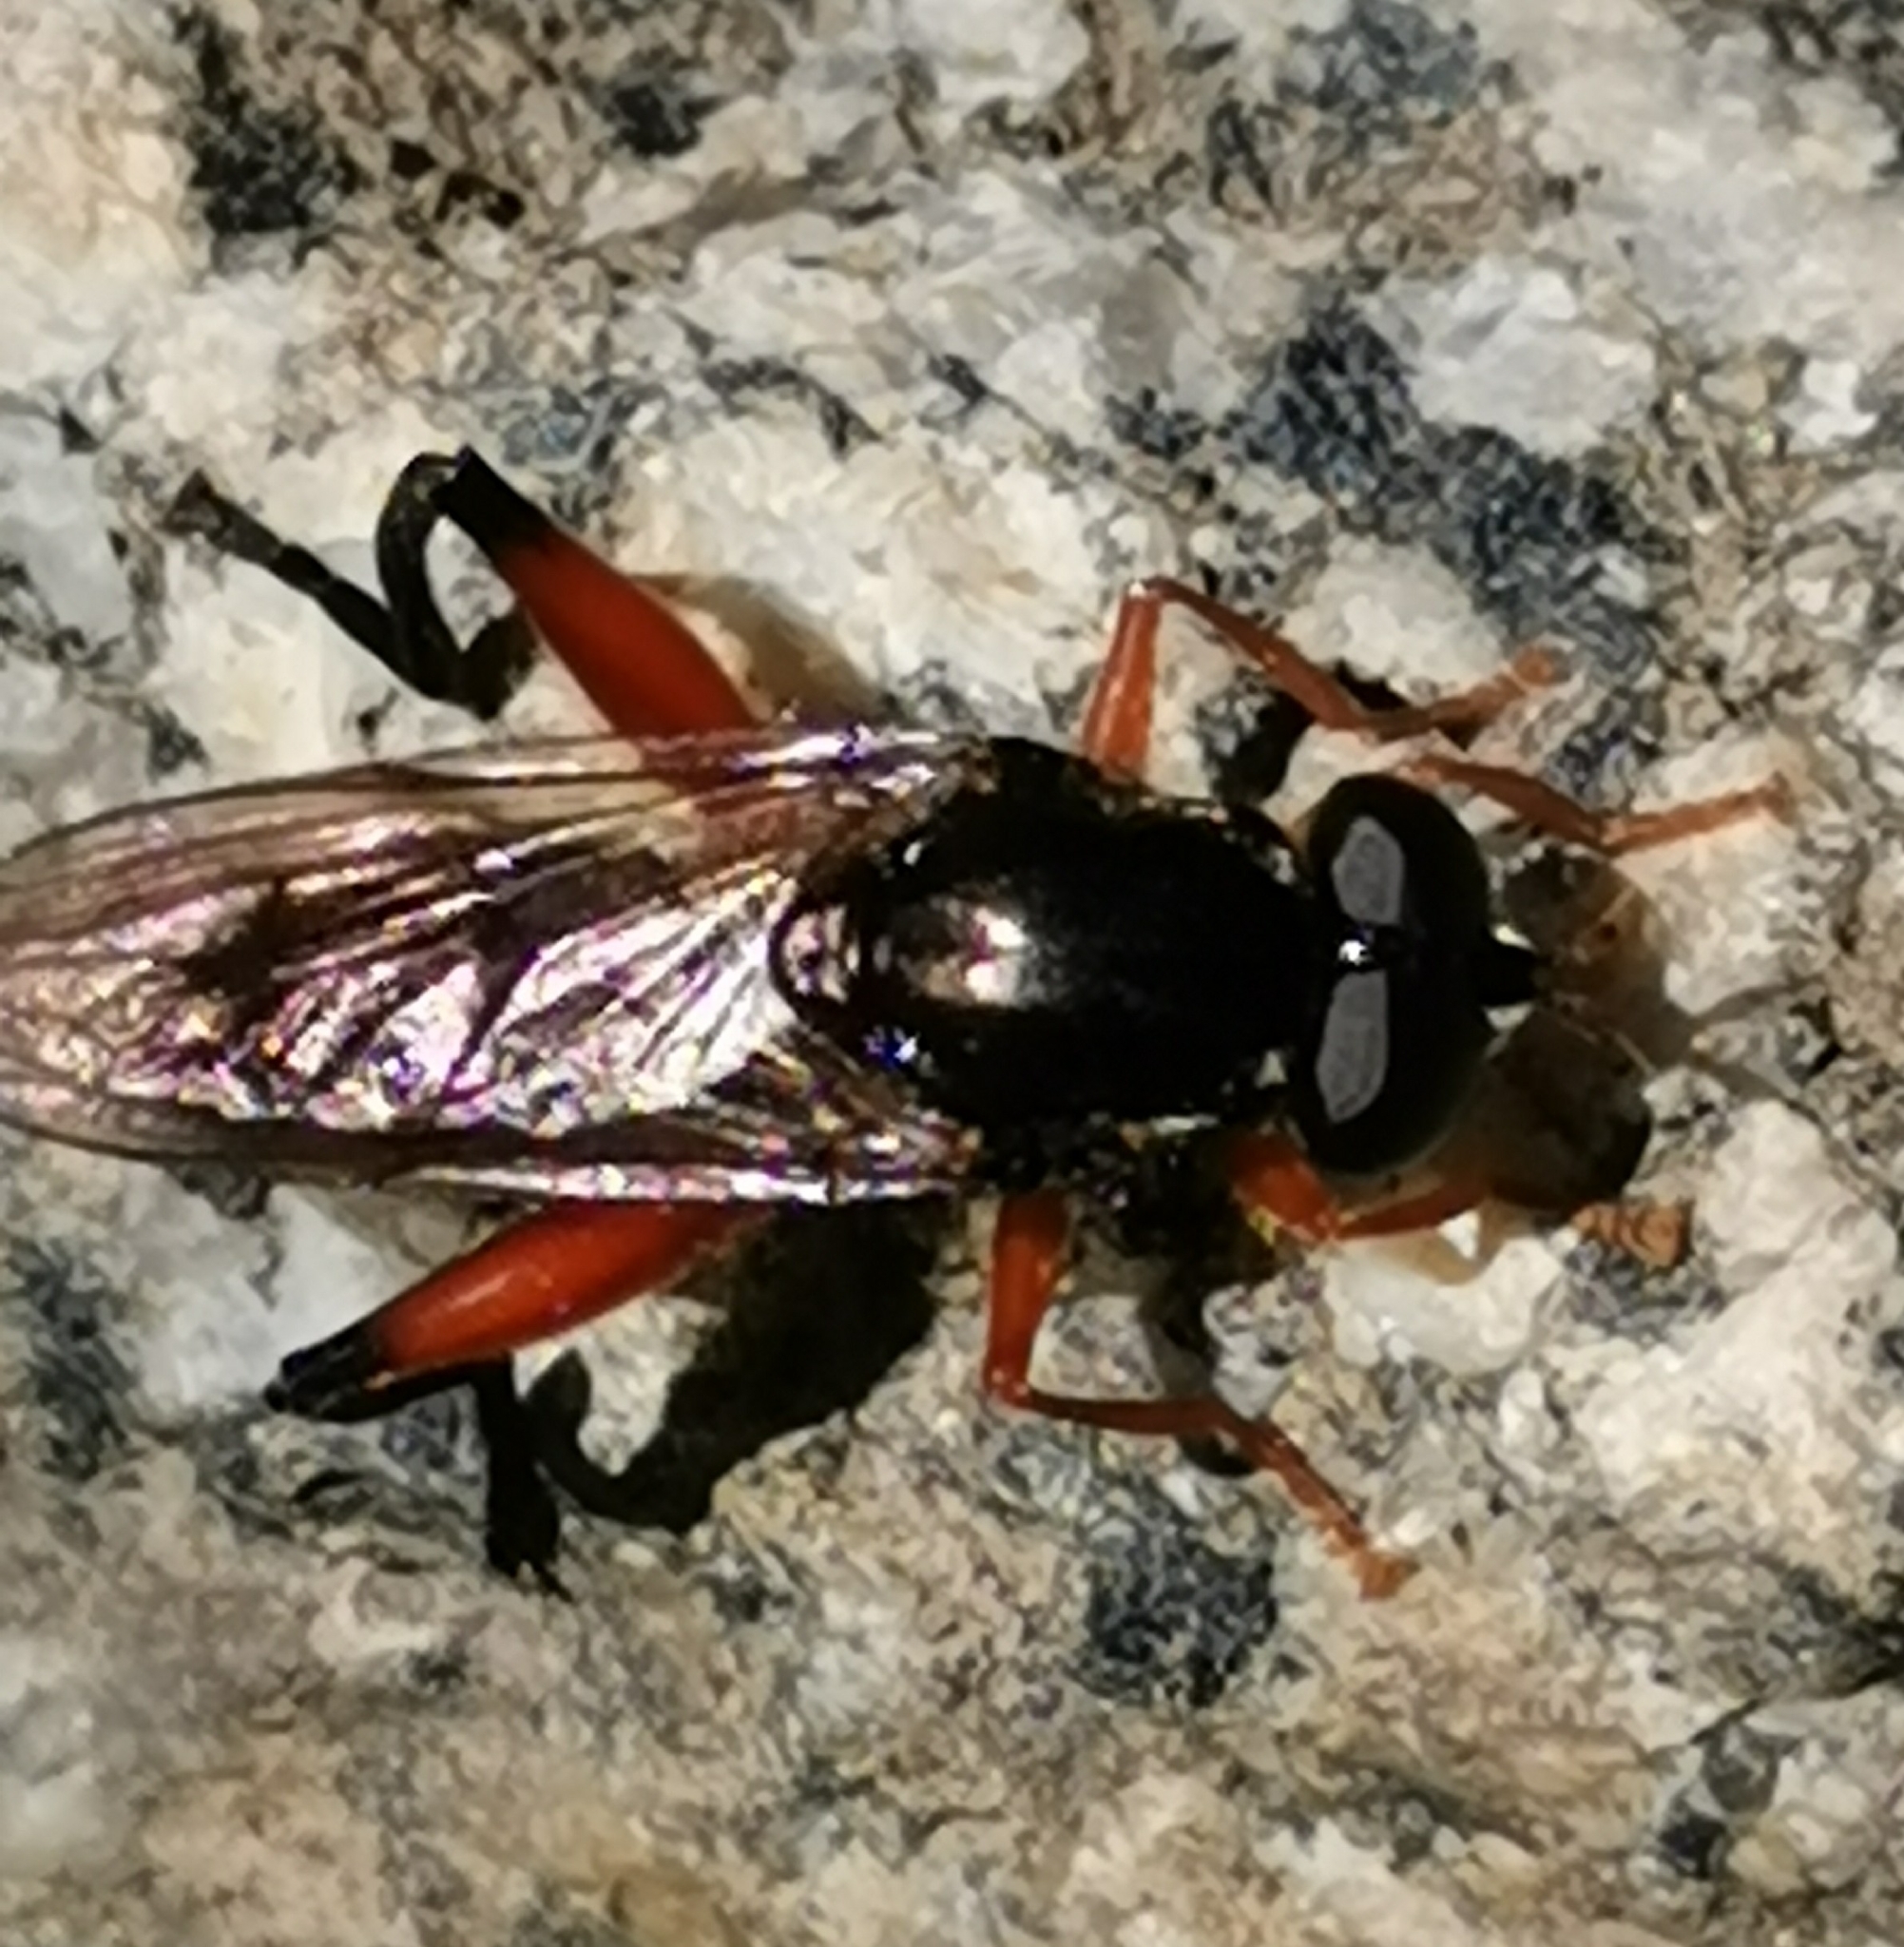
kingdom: Animalia
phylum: Arthropoda
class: Insecta
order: Diptera
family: Syrphidae
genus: Chalcosyrphus
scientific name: Chalcosyrphus valgus
